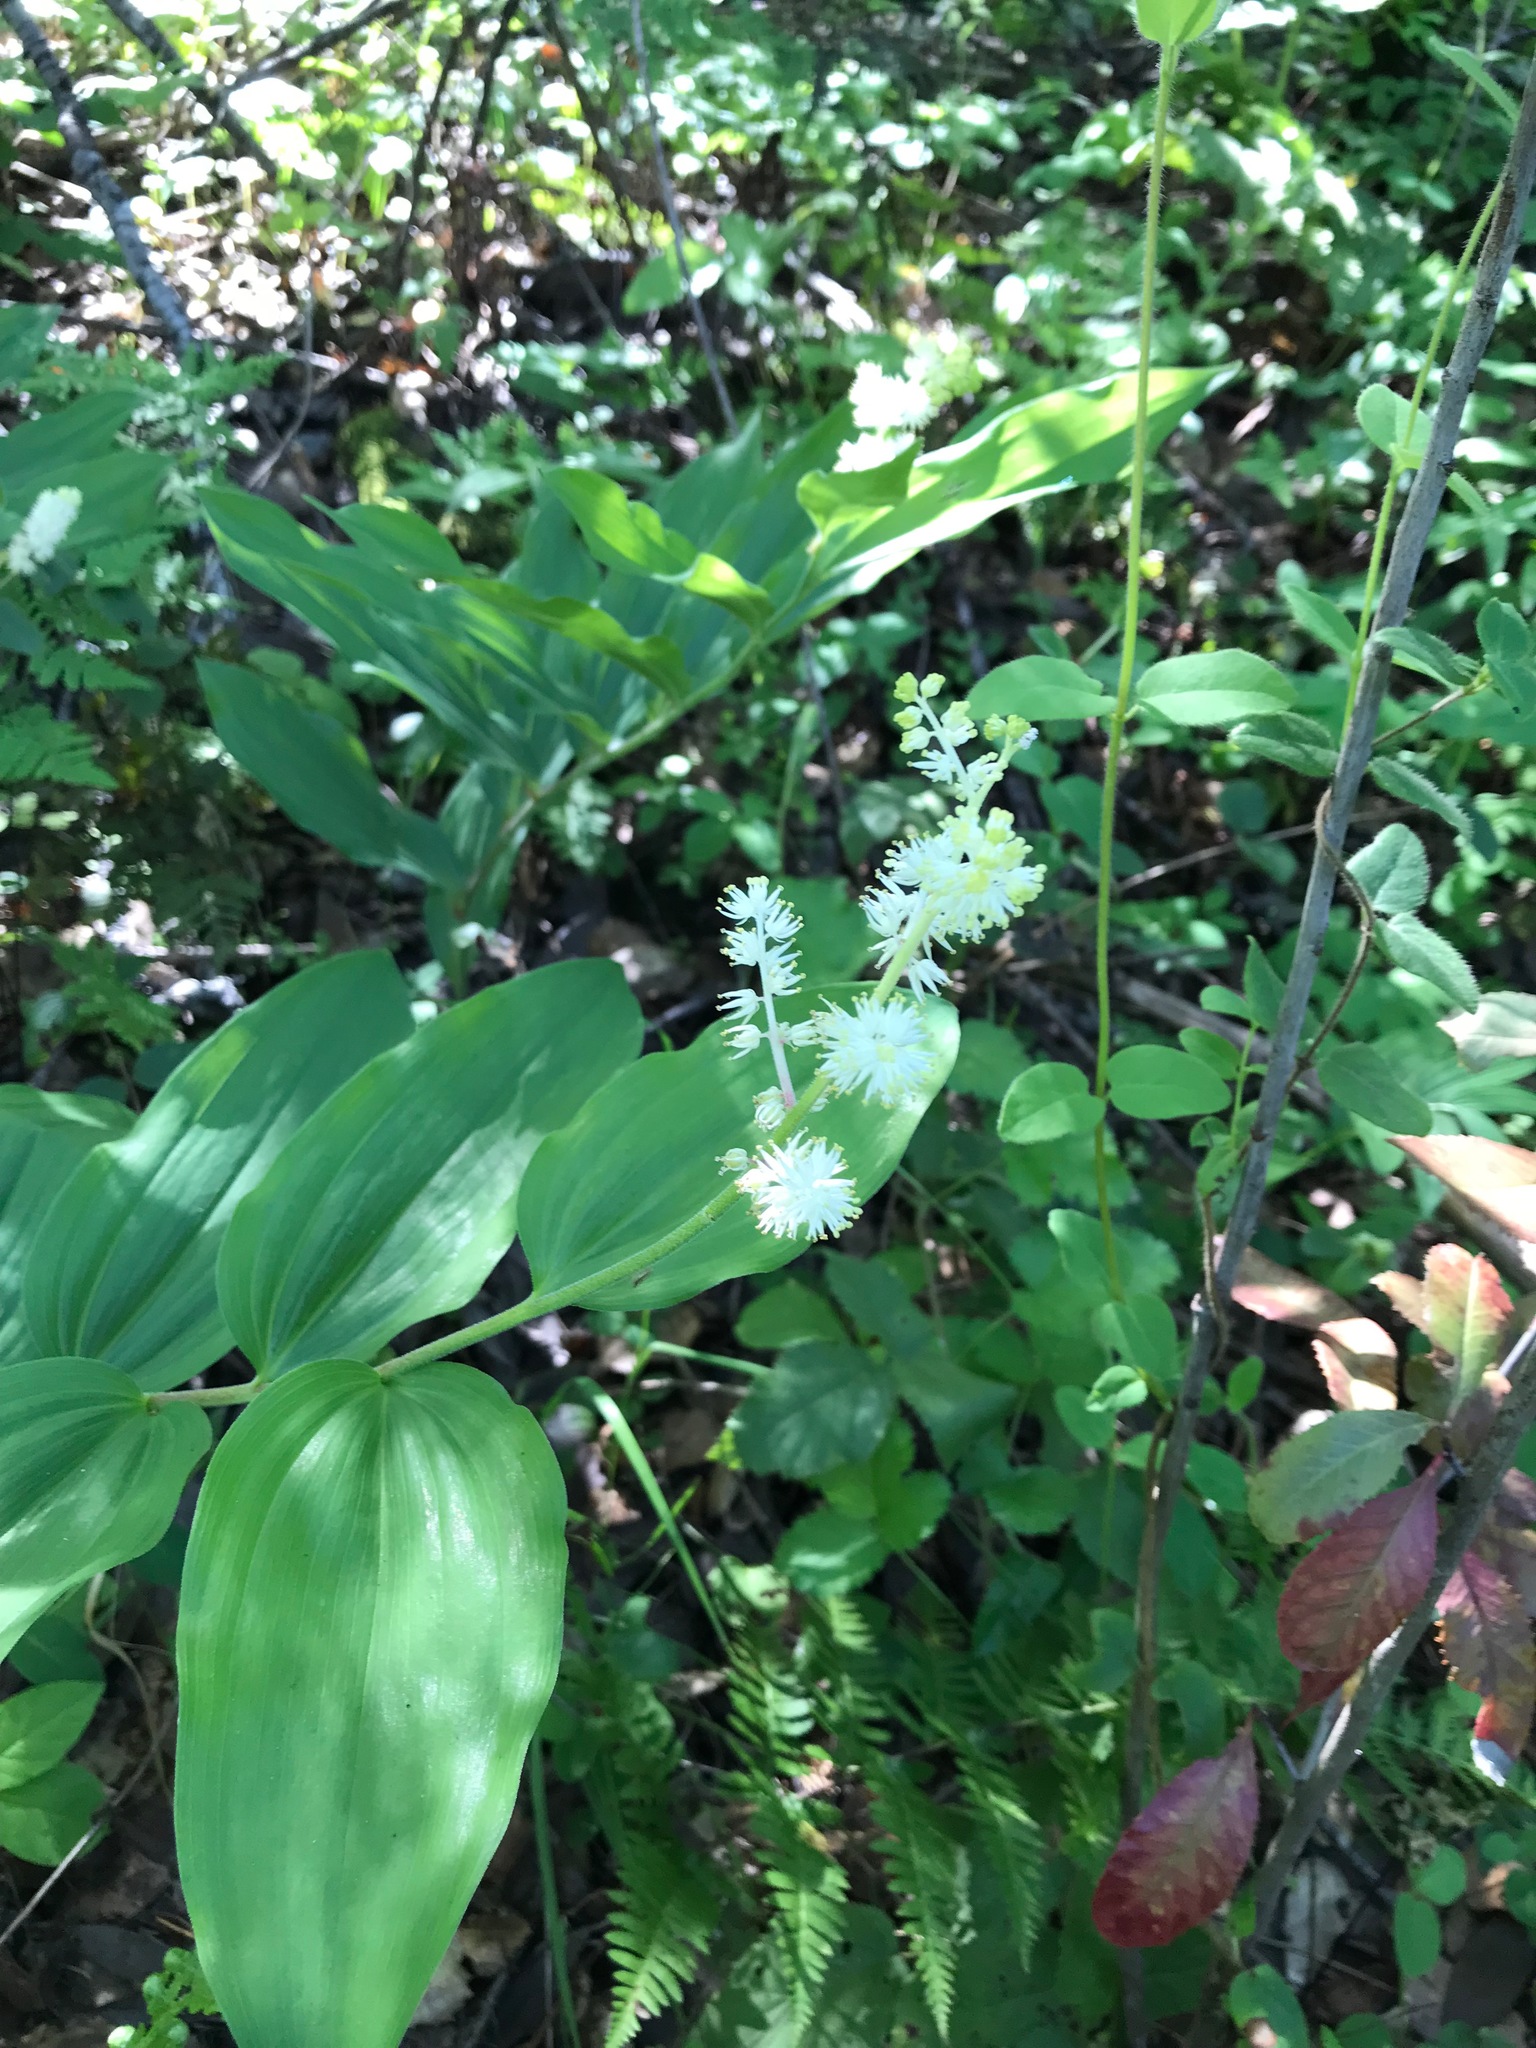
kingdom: Plantae
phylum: Tracheophyta
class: Liliopsida
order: Asparagales
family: Asparagaceae
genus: Maianthemum
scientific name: Maianthemum racemosum
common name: False spikenard
